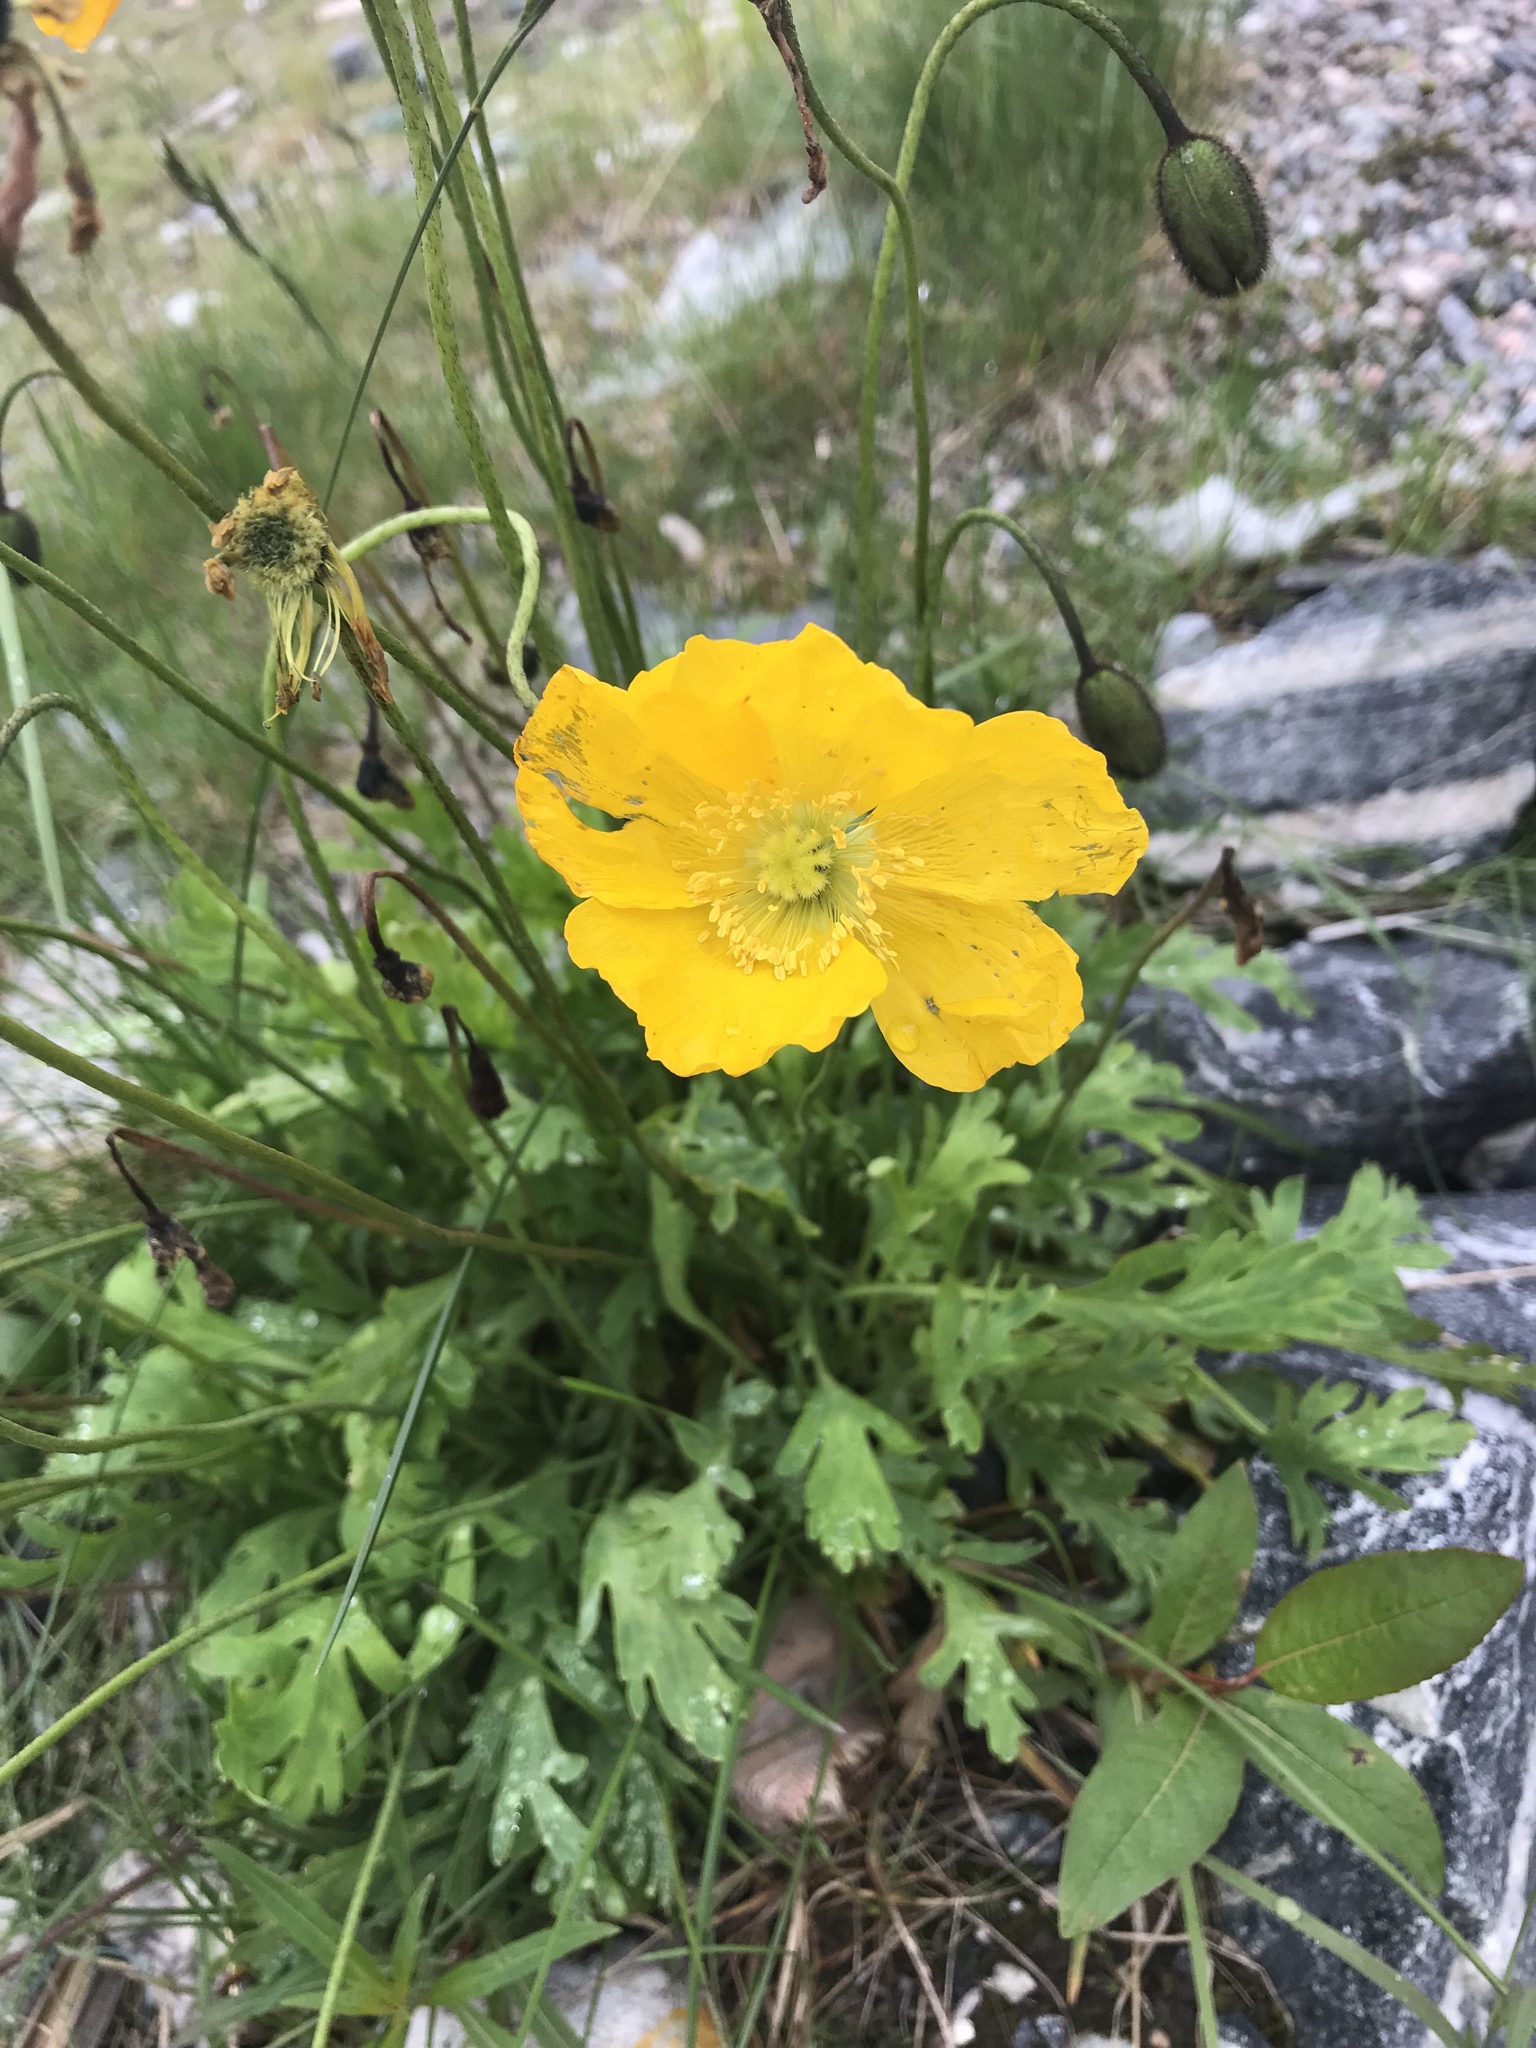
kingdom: Plantae
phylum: Tracheophyta
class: Magnoliopsida
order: Ranunculales
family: Papaveraceae
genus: Oreomecon
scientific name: Oreomecon
